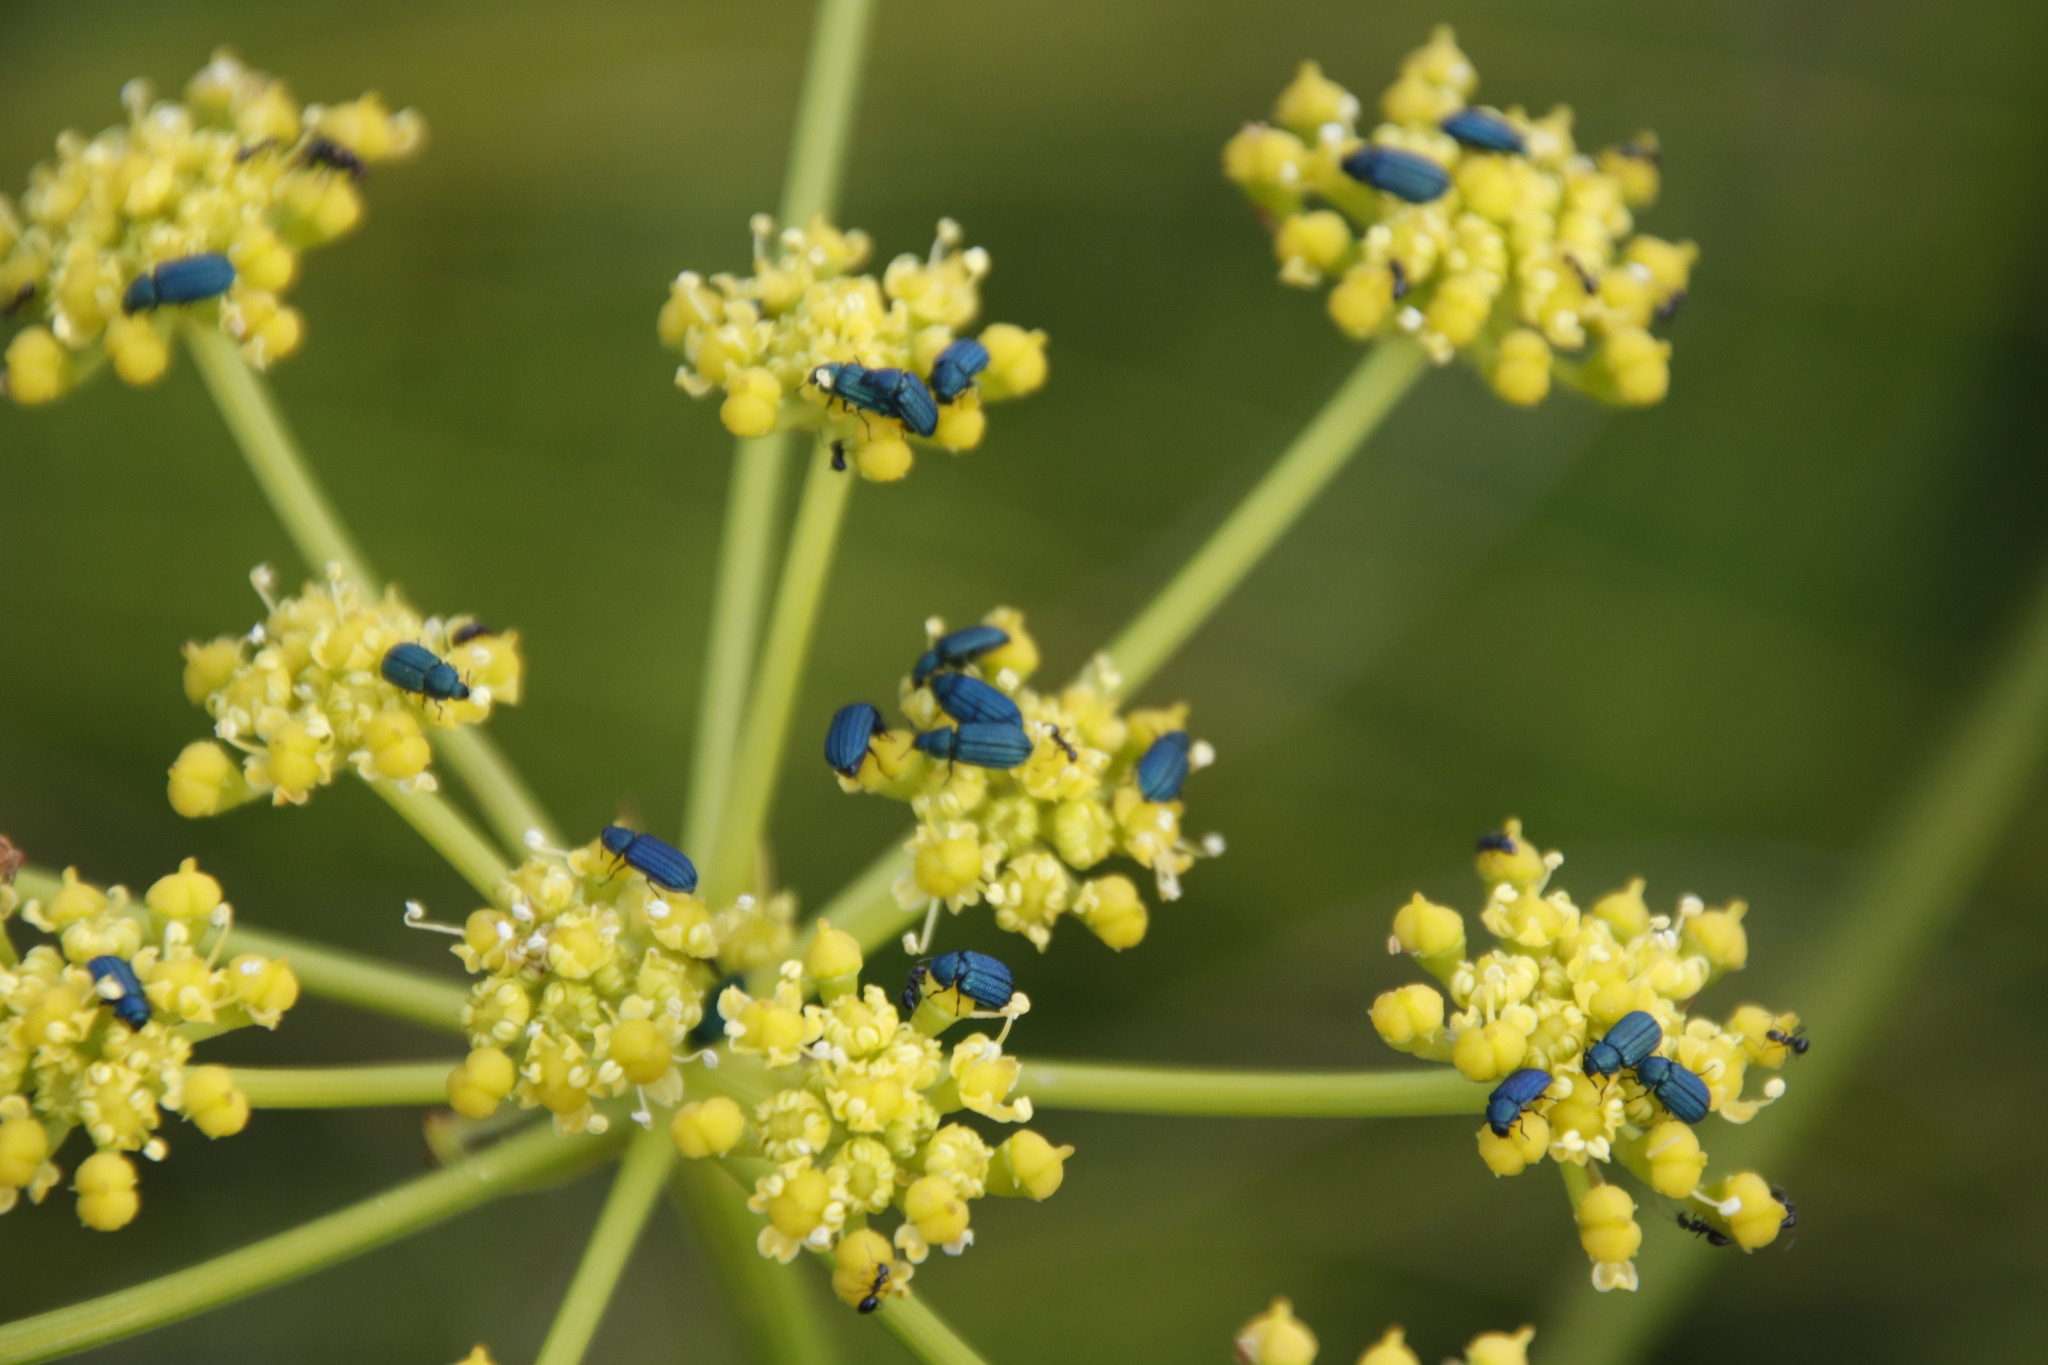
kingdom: Plantae
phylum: Tracheophyta
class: Magnoliopsida
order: Apiales
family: Apiaceae
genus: Nanobubon
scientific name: Nanobubon strictum
